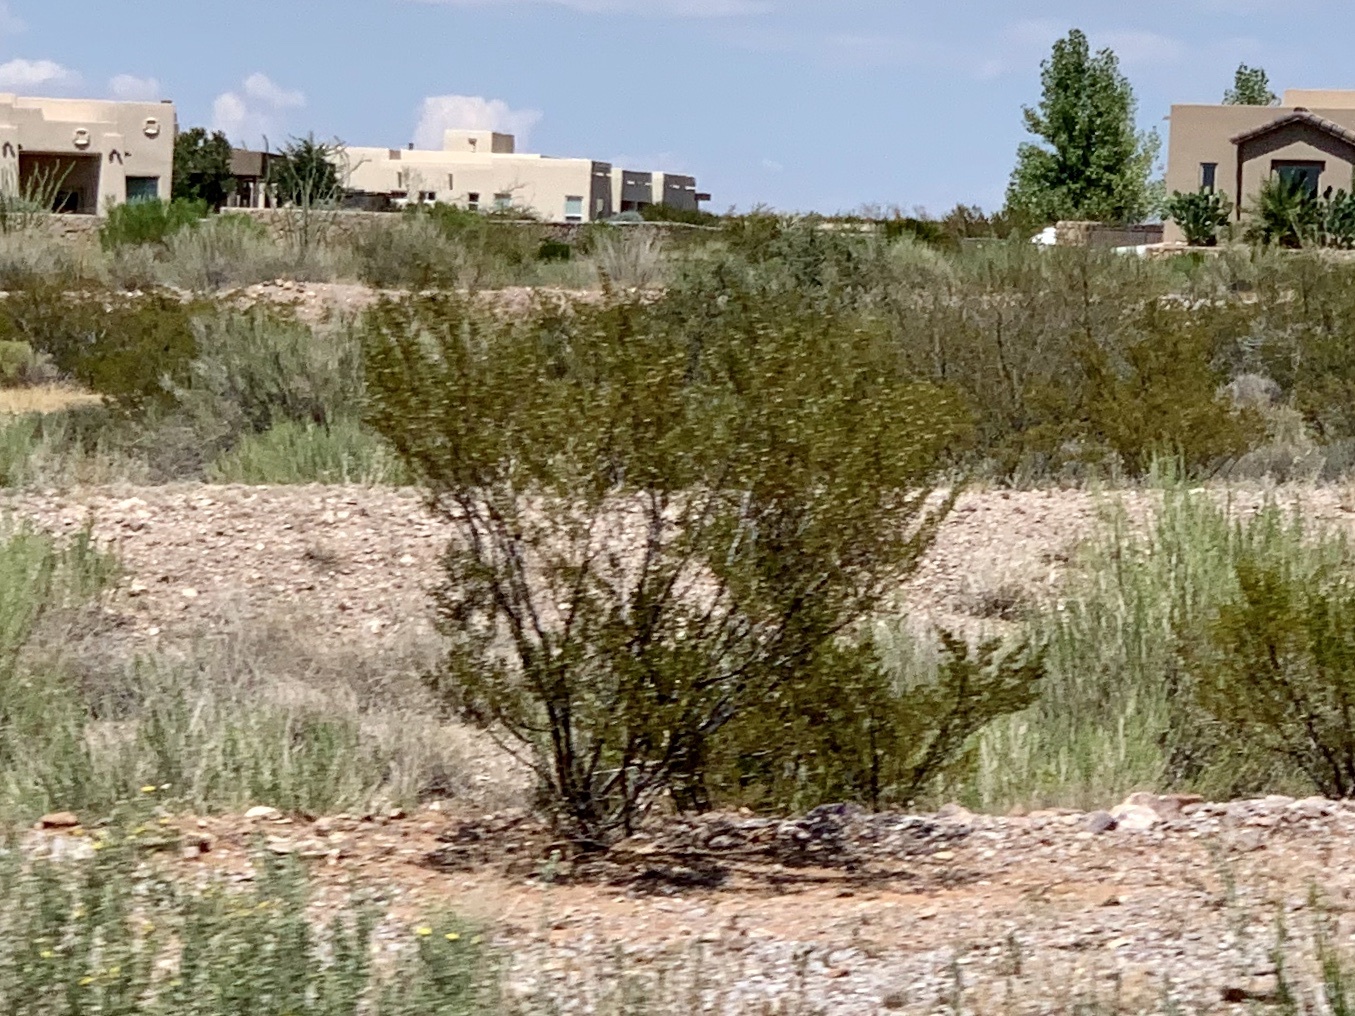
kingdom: Plantae
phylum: Tracheophyta
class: Magnoliopsida
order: Zygophyllales
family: Zygophyllaceae
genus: Larrea
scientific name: Larrea tridentata
